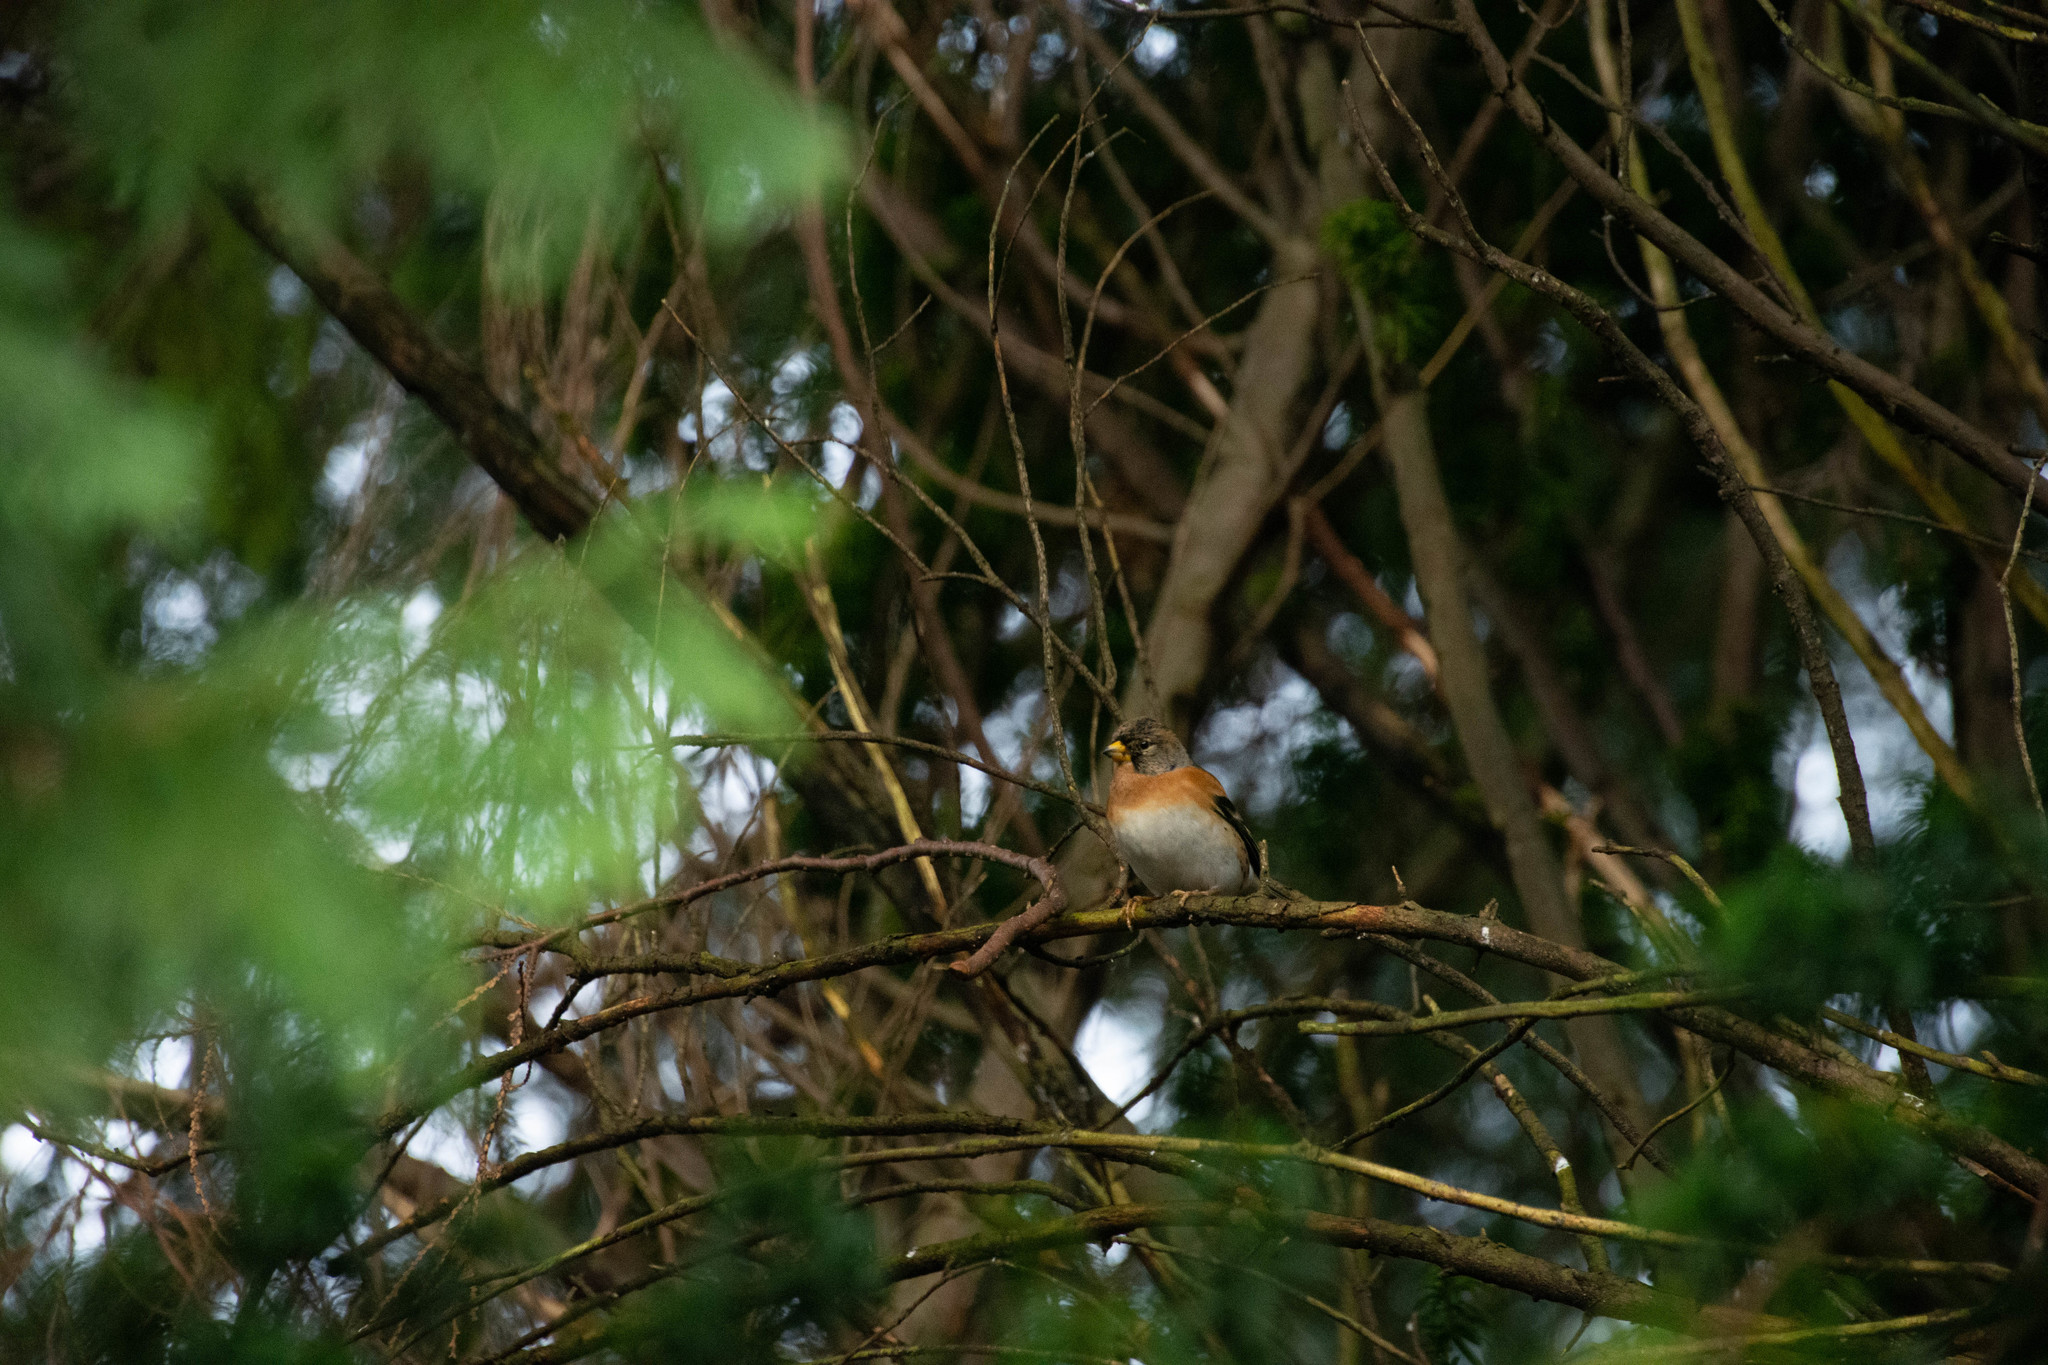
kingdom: Animalia
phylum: Chordata
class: Aves
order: Passeriformes
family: Fringillidae
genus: Fringilla
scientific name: Fringilla montifringilla
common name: Brambling
